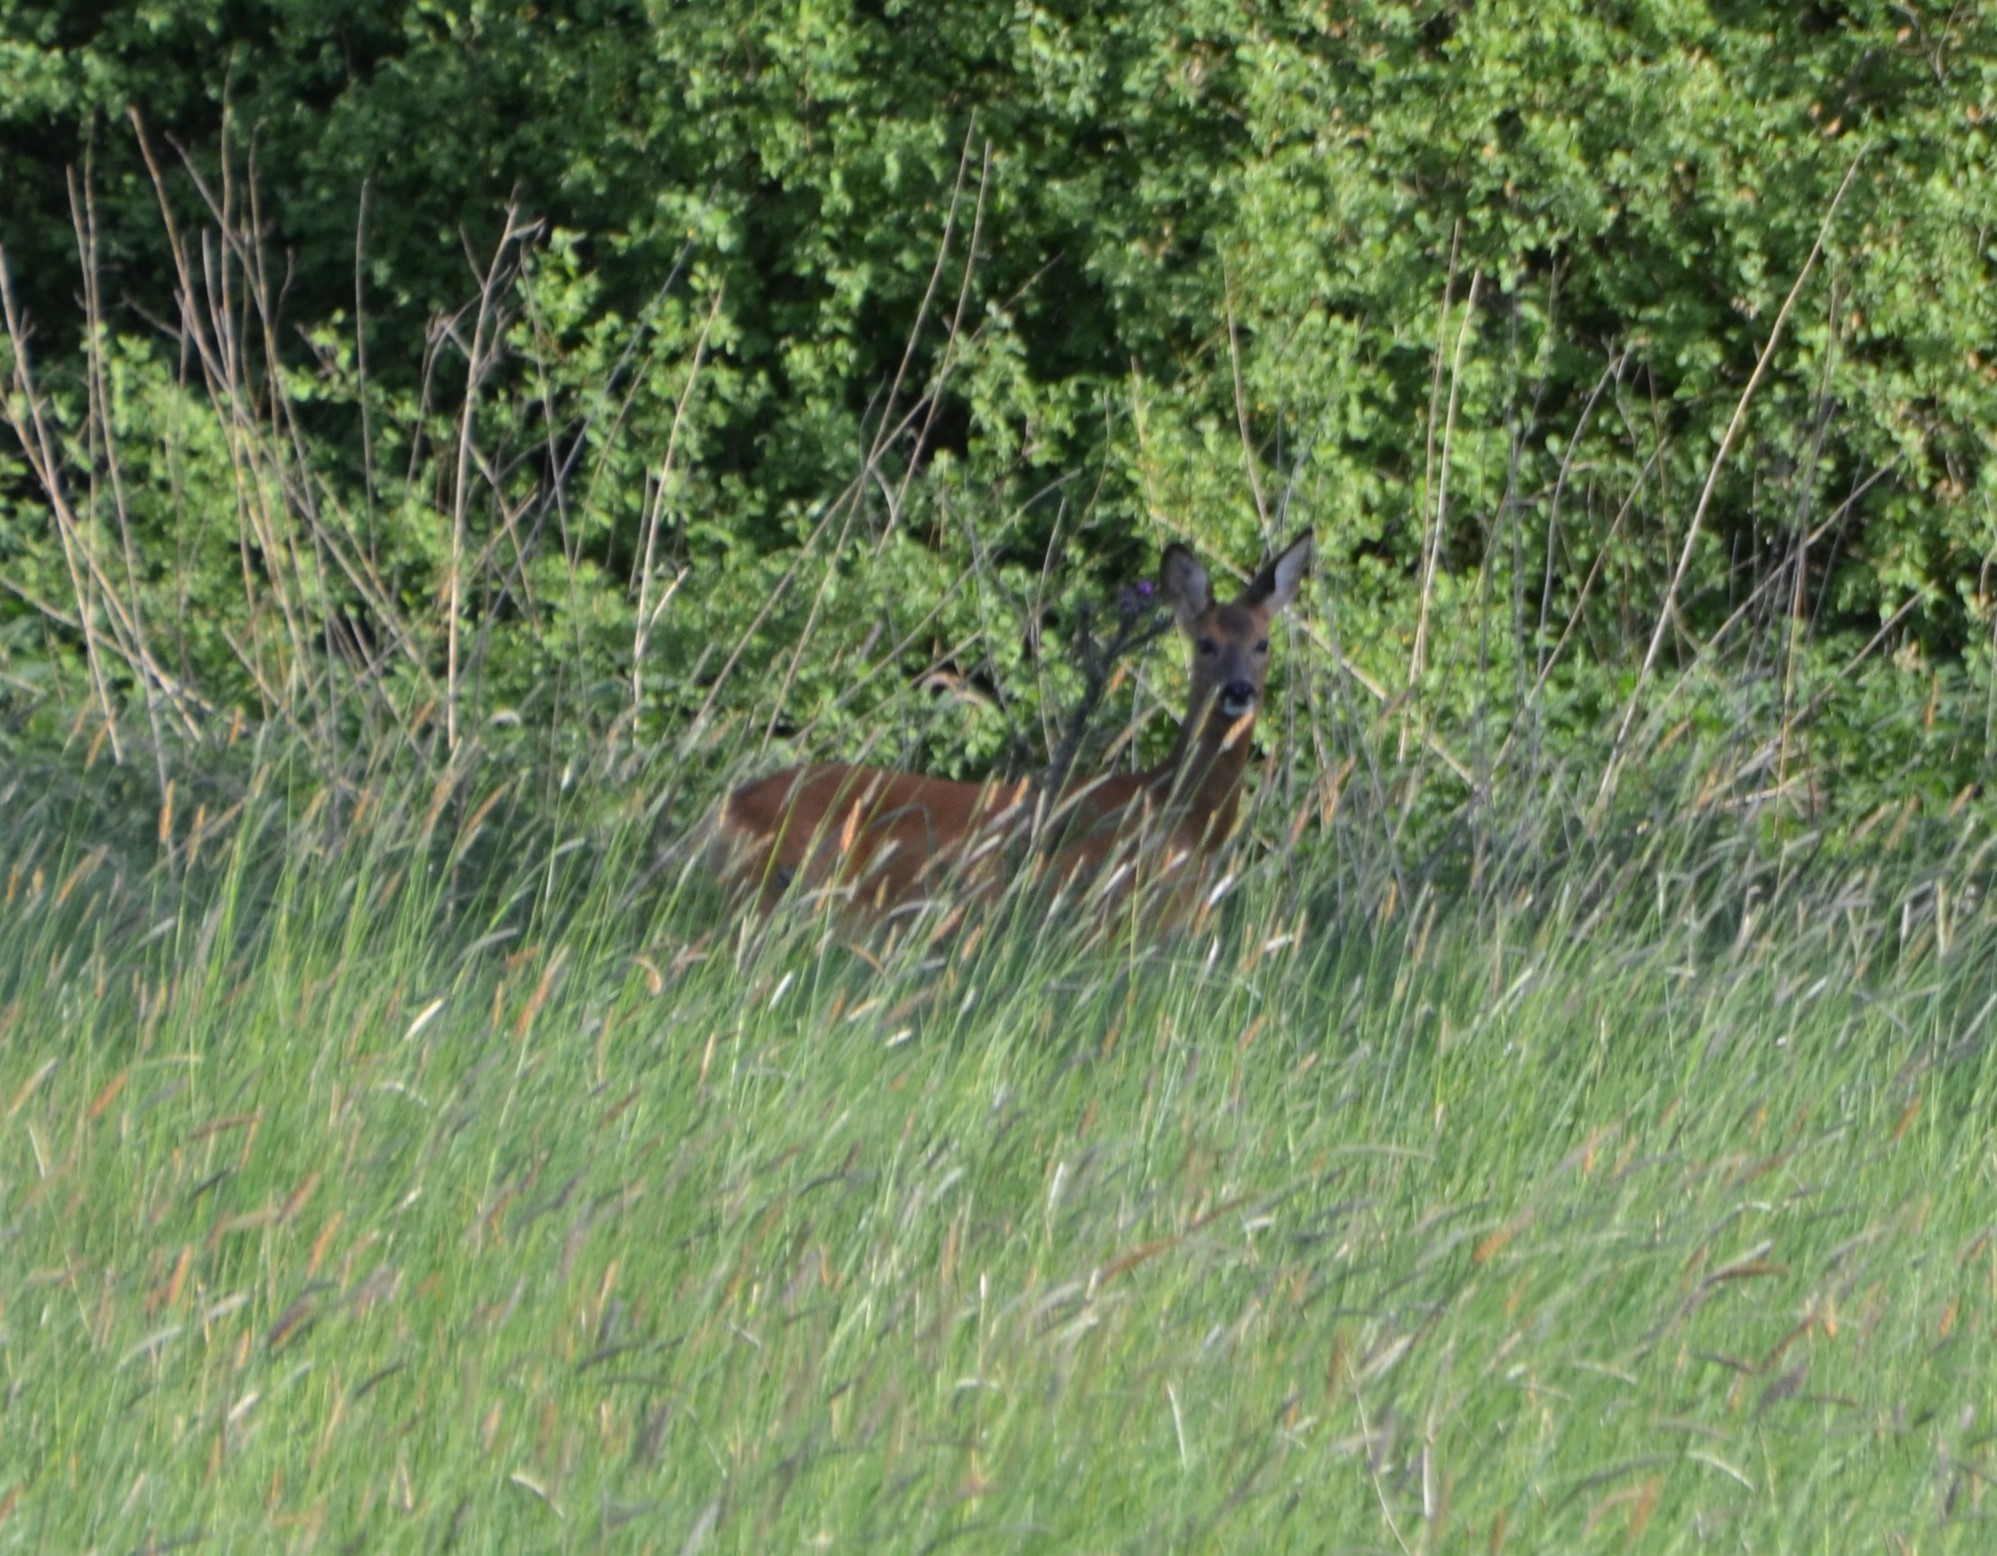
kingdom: Animalia
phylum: Chordata
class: Mammalia
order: Artiodactyla
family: Cervidae
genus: Capreolus
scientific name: Capreolus capreolus
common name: Western roe deer
